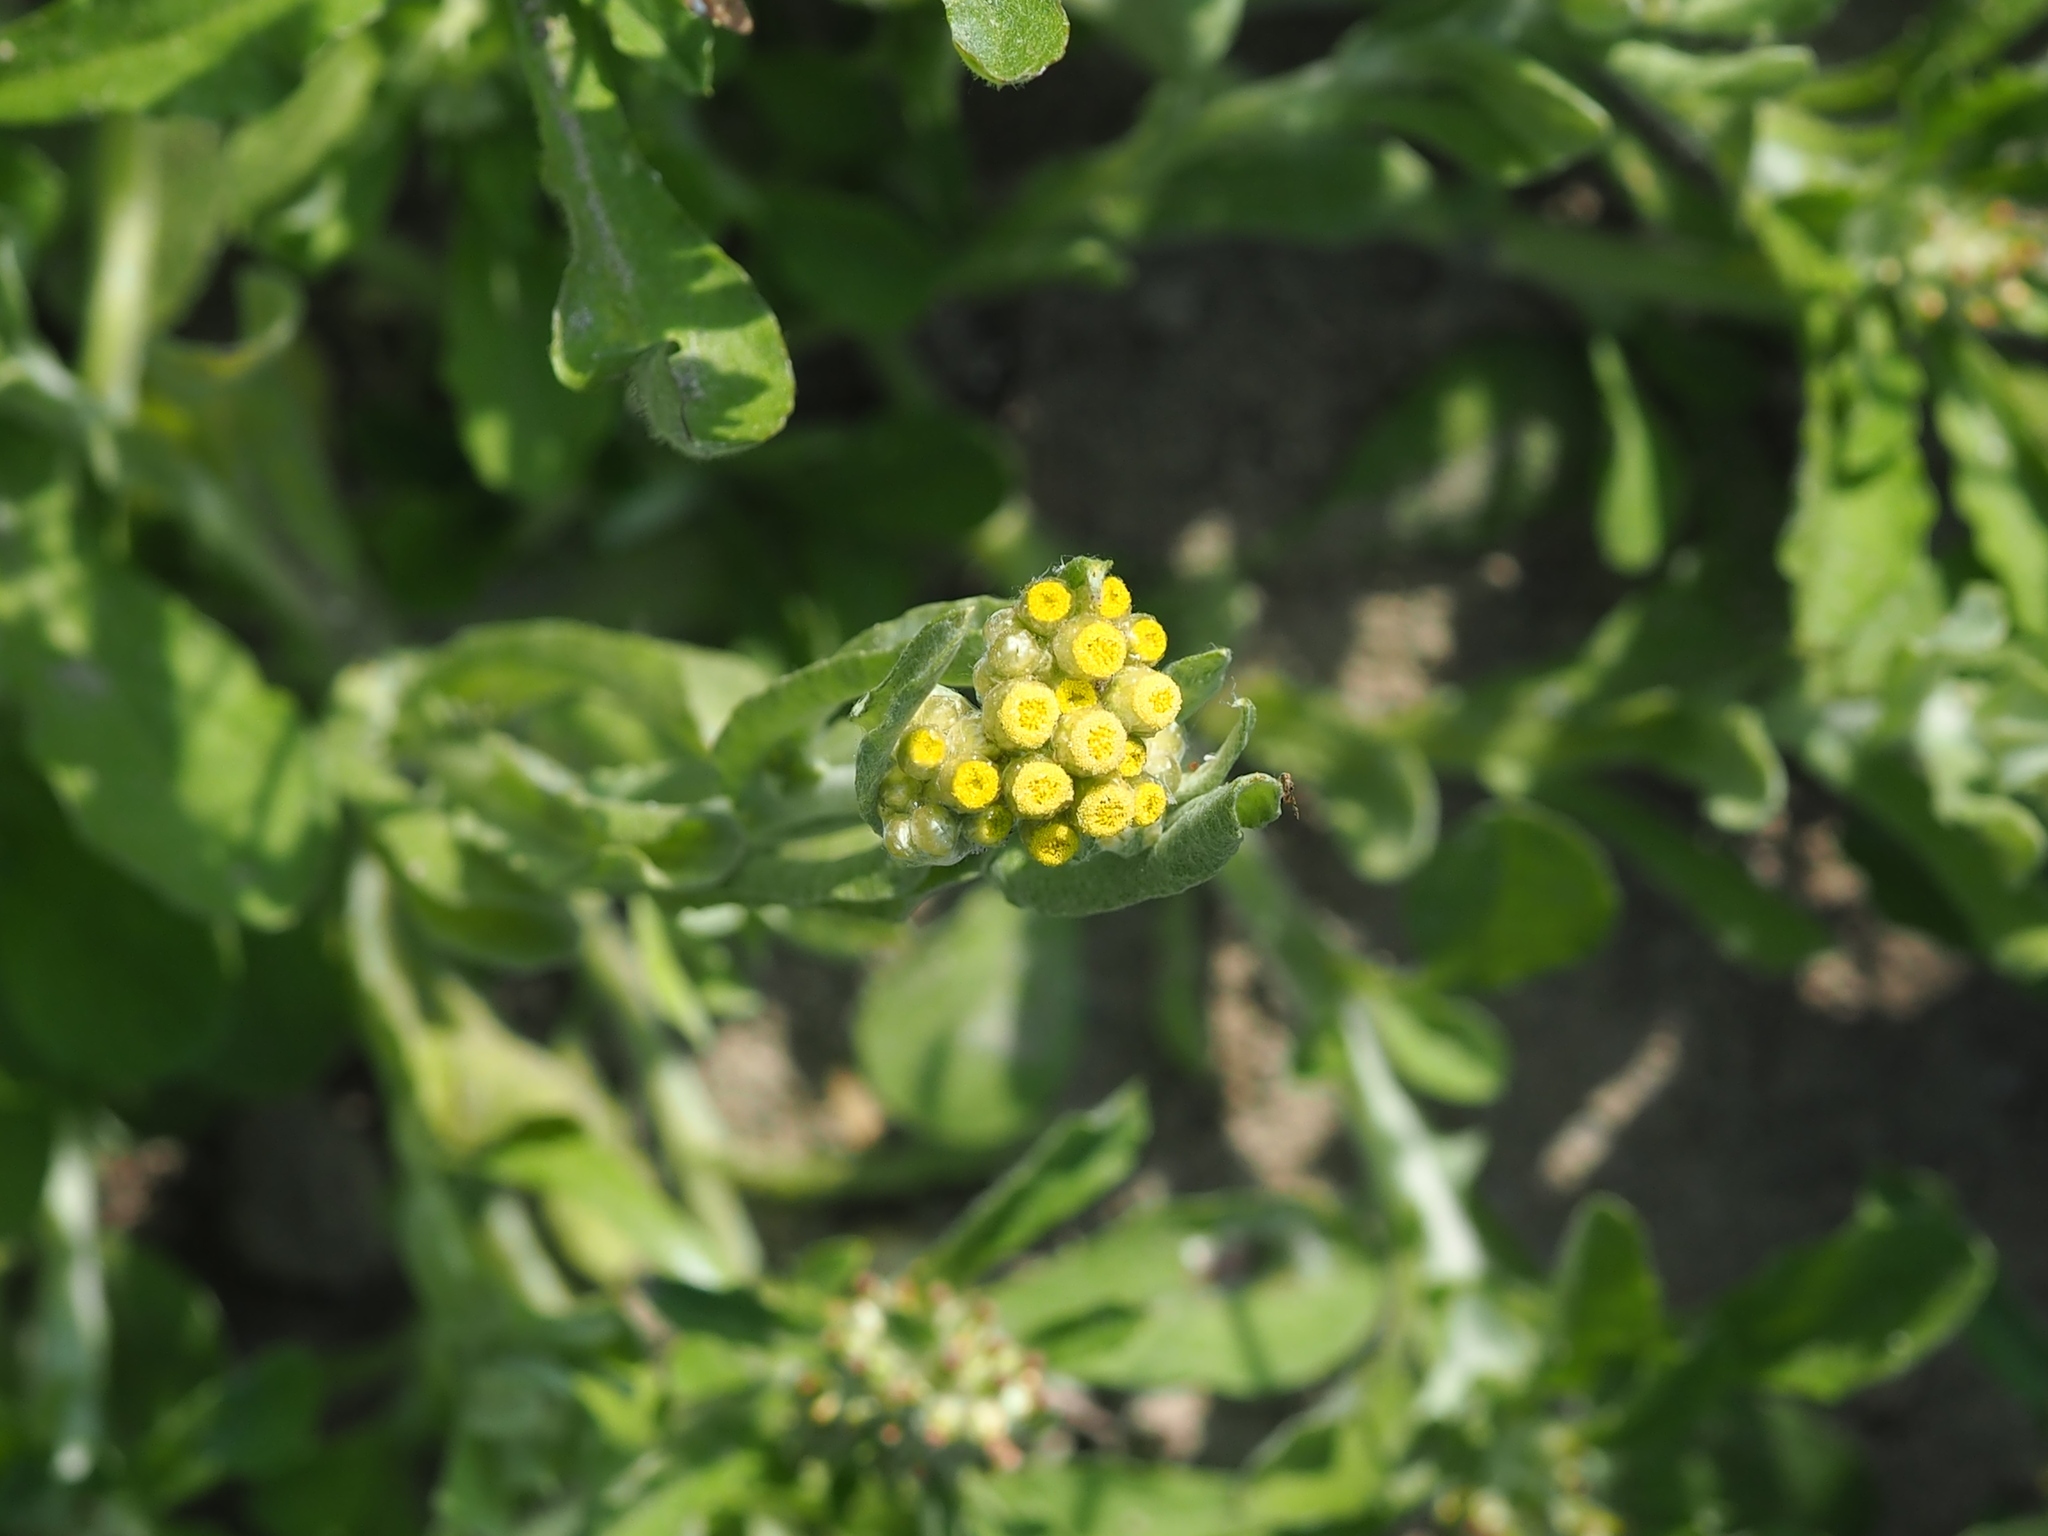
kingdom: Plantae
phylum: Tracheophyta
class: Magnoliopsida
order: Asterales
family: Asteraceae
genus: Pseudognaphalium
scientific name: Pseudognaphalium affine
